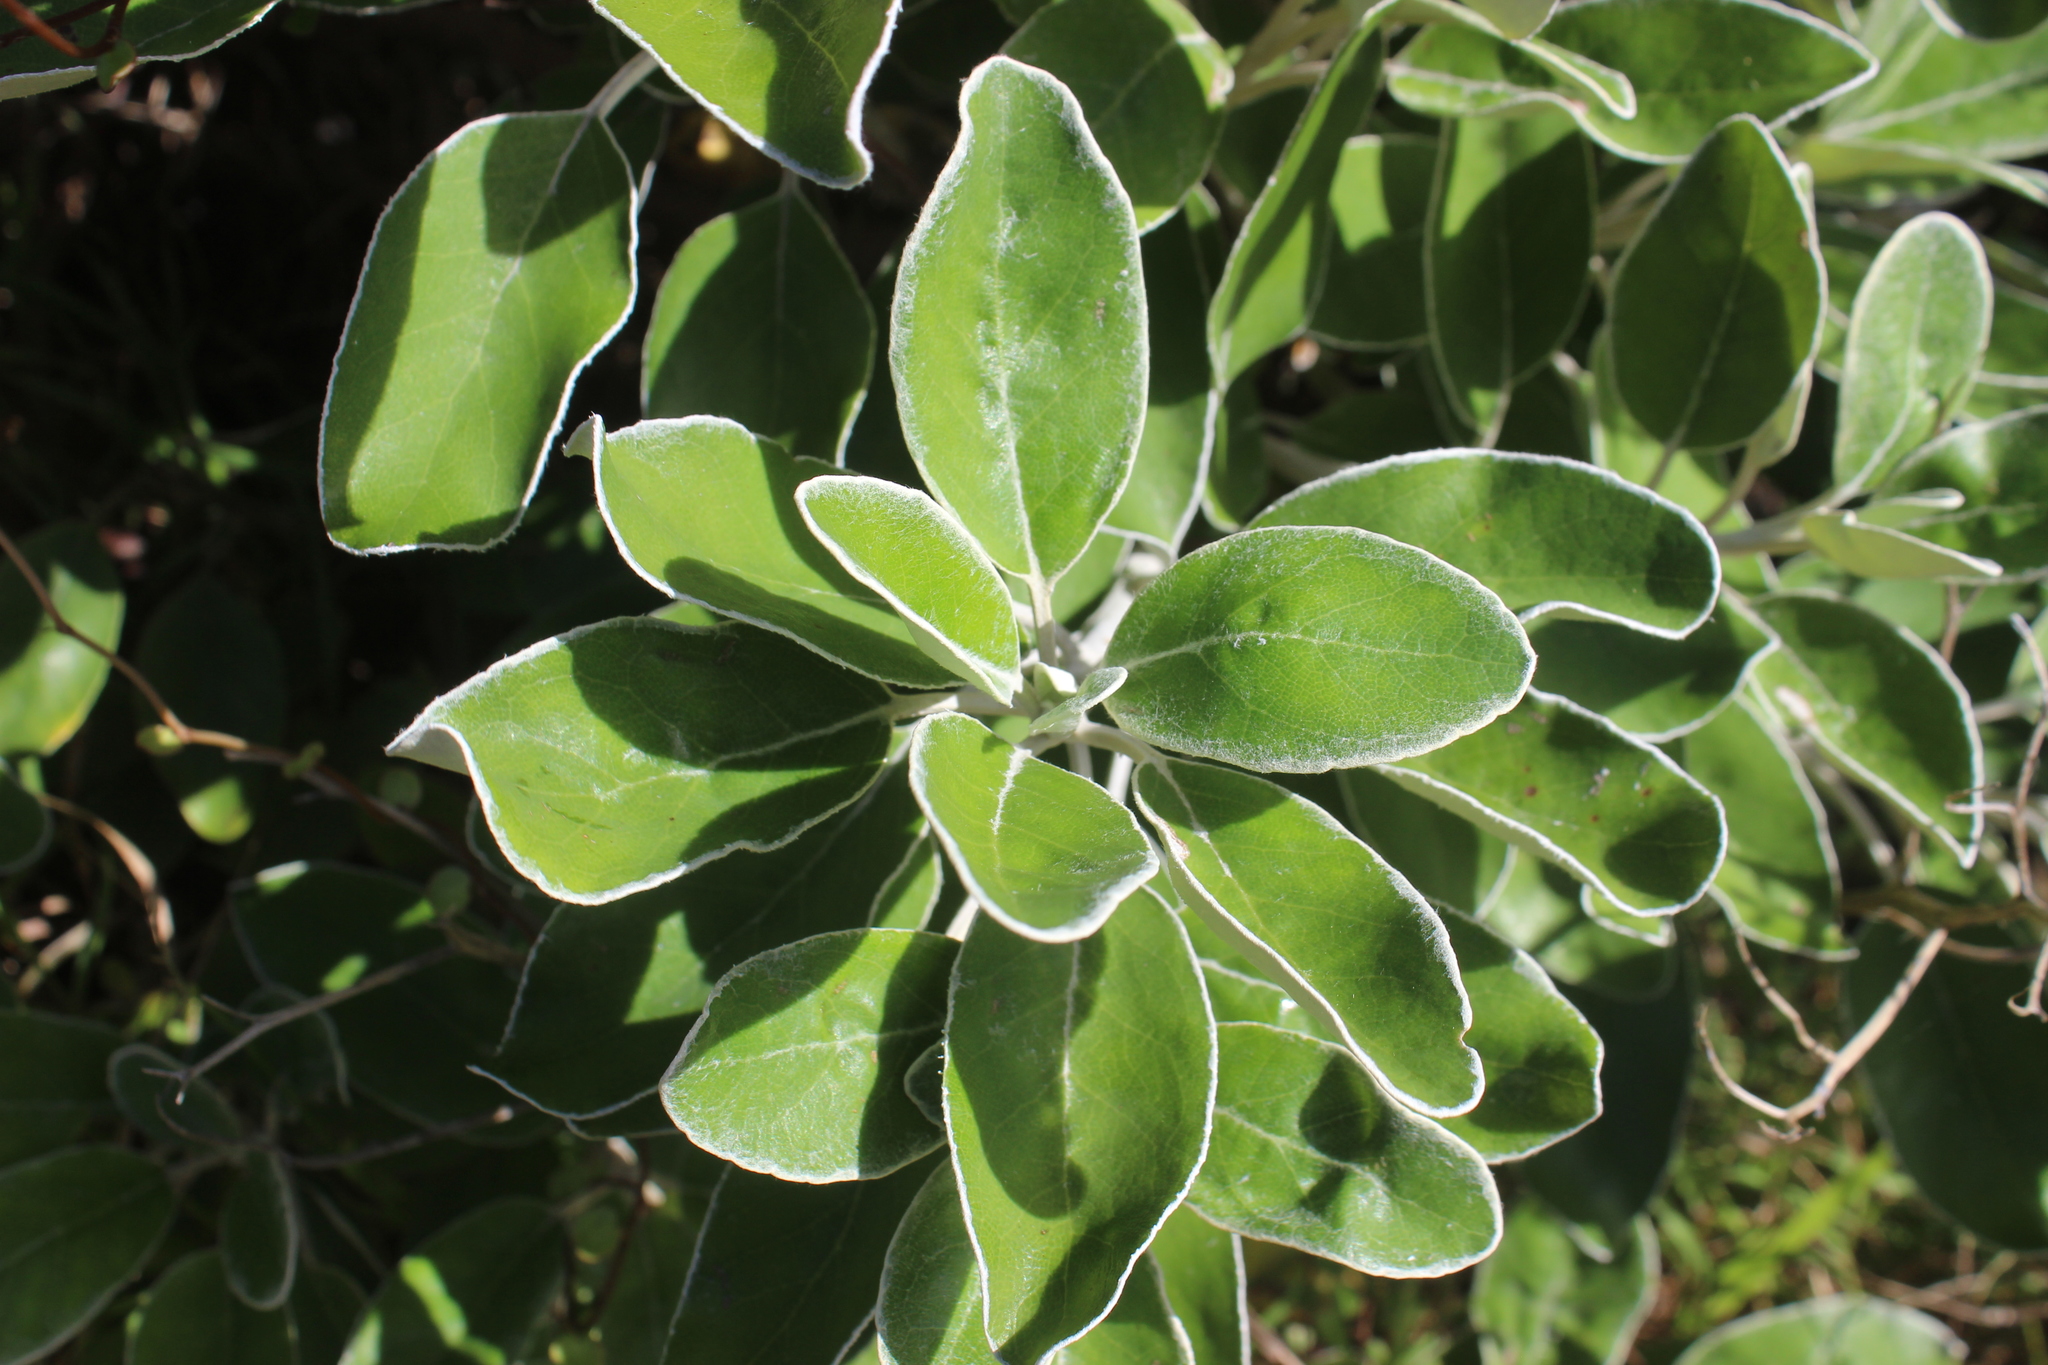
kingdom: Plantae
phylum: Tracheophyta
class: Magnoliopsida
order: Asterales
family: Asteraceae
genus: Brachyglottis
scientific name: Brachyglottis greyi
